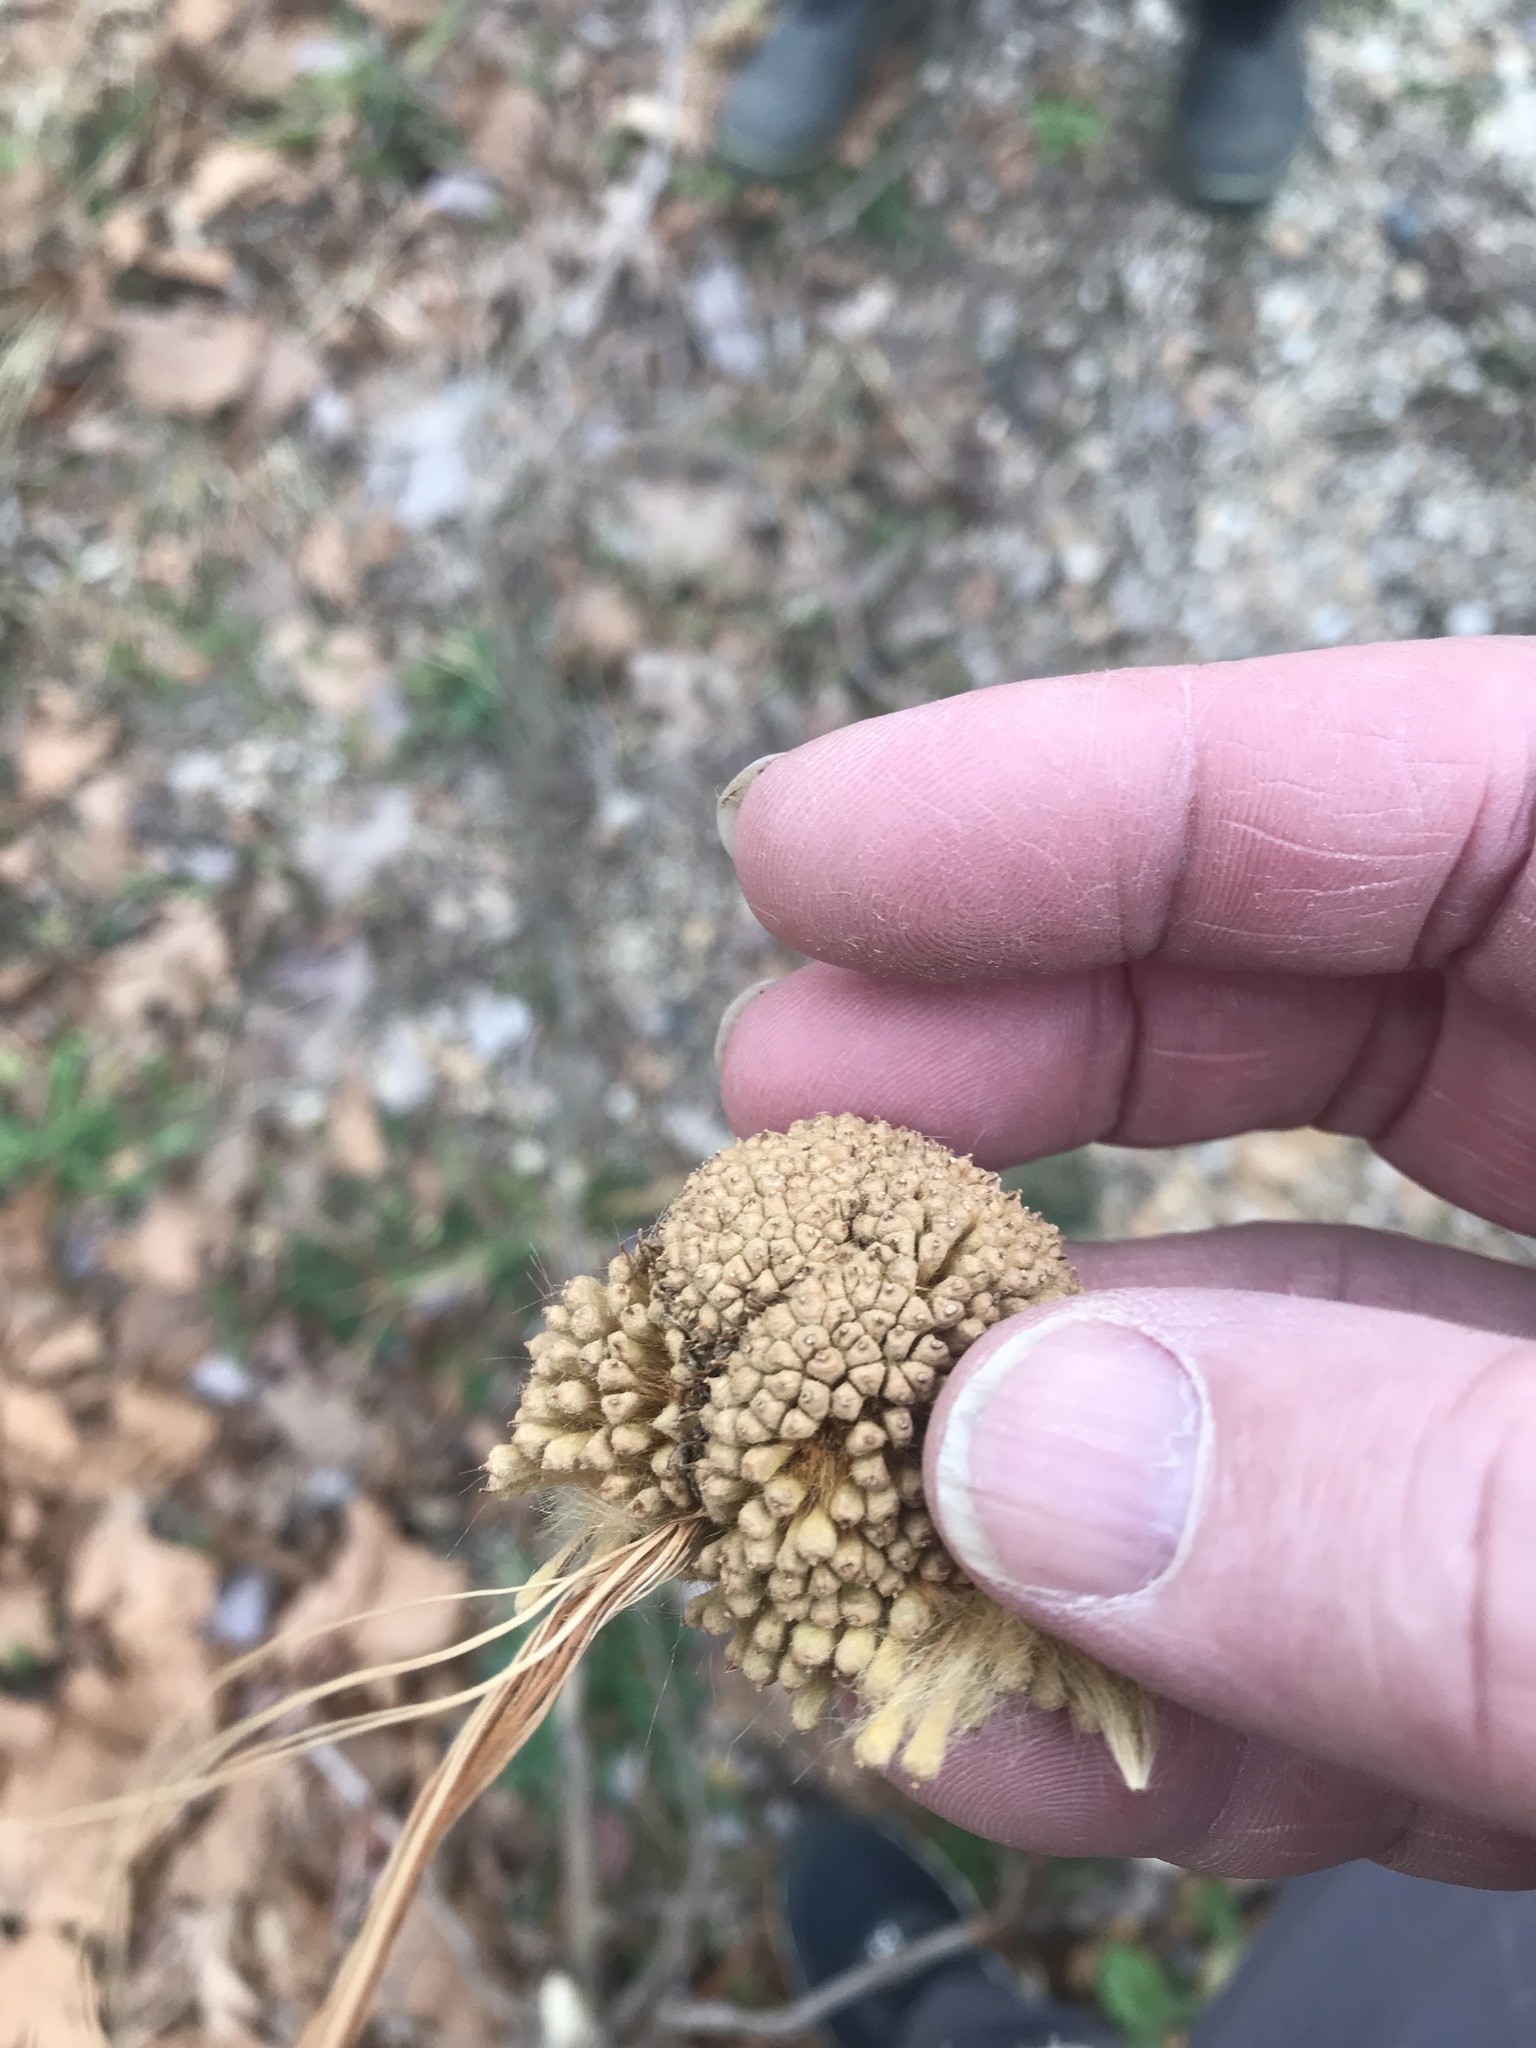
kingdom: Plantae
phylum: Tracheophyta
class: Magnoliopsida
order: Proteales
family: Platanaceae
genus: Platanus
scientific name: Platanus occidentalis
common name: American sycamore
